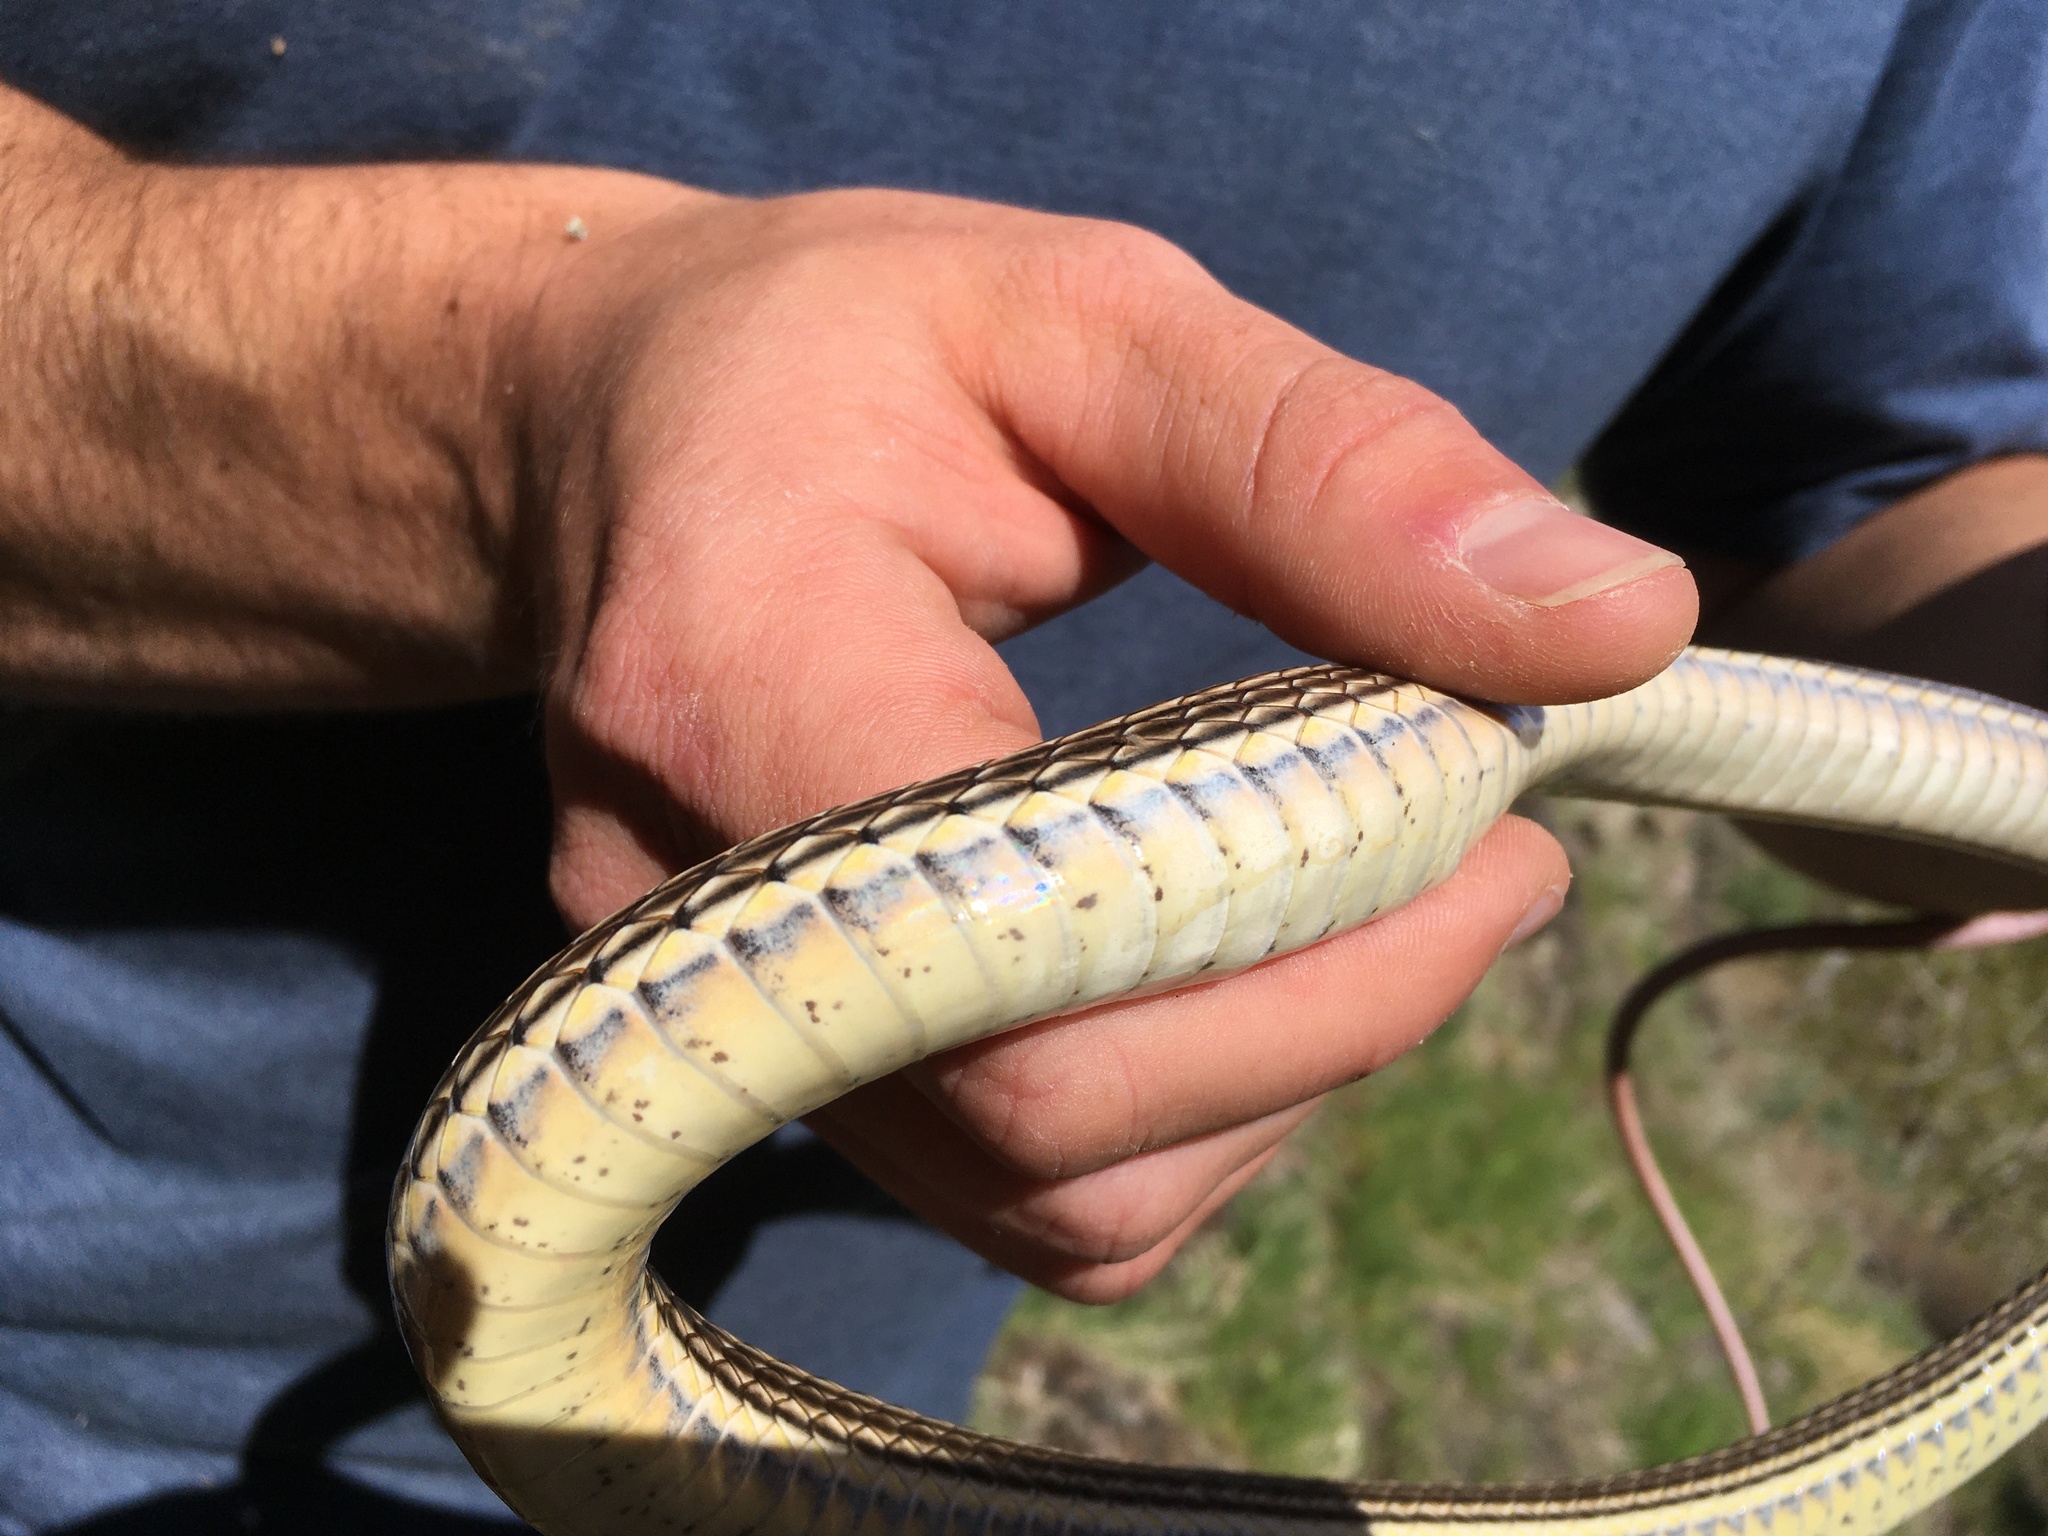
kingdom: Animalia
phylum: Chordata
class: Squamata
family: Colubridae
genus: Masticophis
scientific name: Masticophis taeniatus
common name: Striped whipsnake
